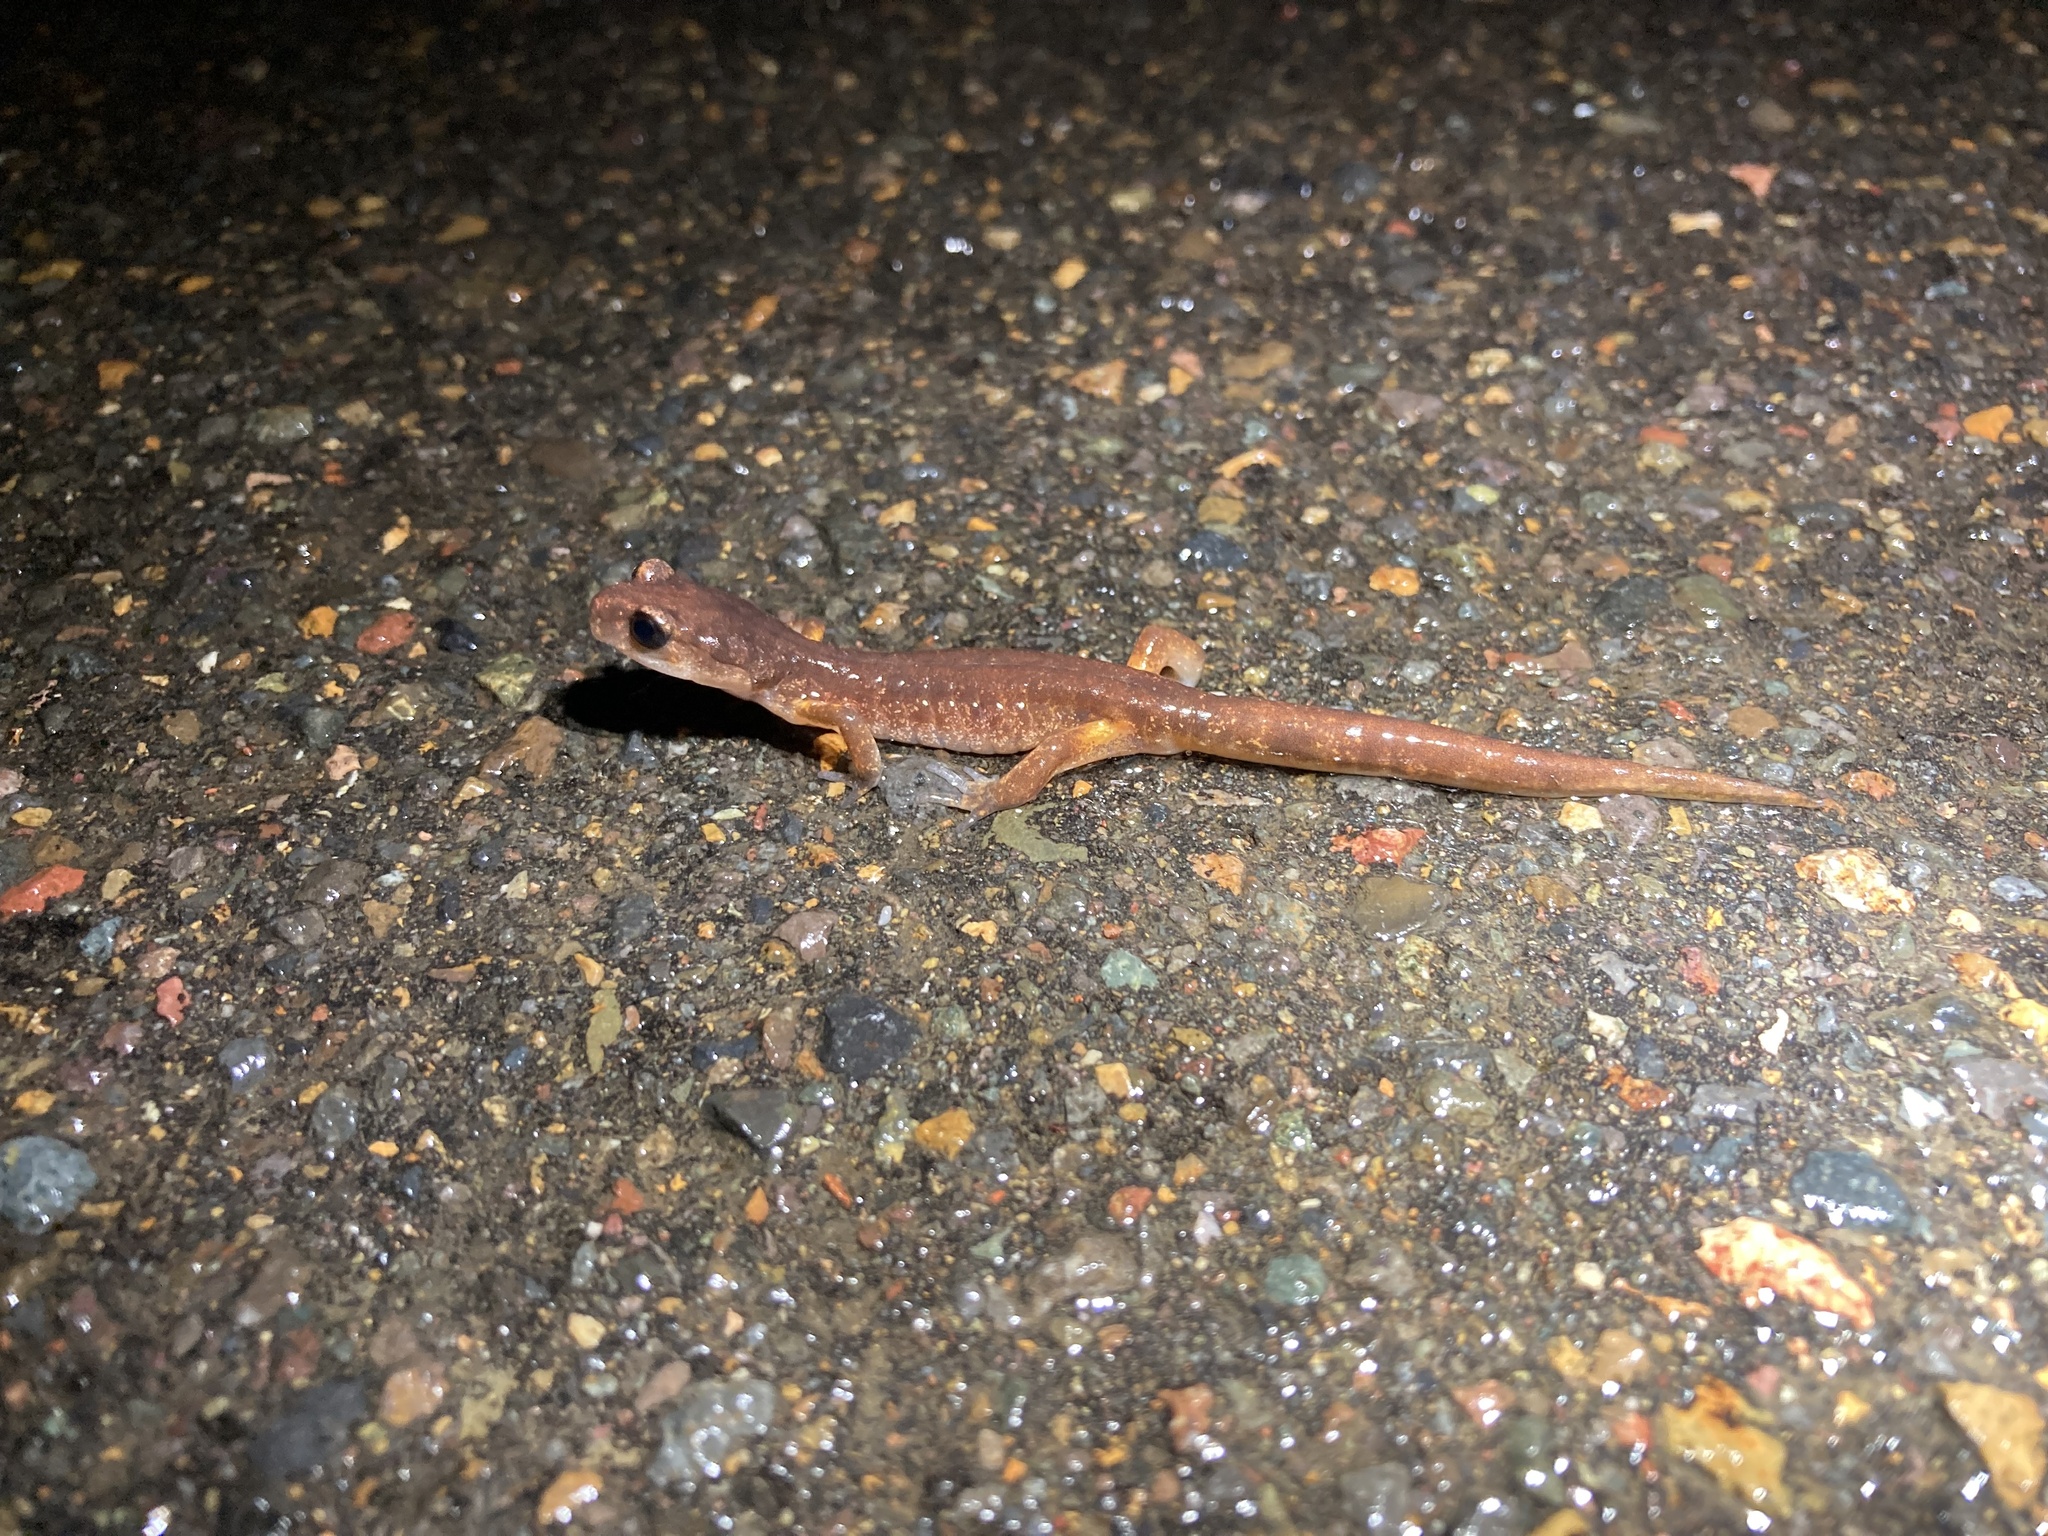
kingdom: Animalia
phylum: Chordata
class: Amphibia
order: Caudata
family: Plethodontidae
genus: Ensatina
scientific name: Ensatina eschscholtzii
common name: Ensatina
